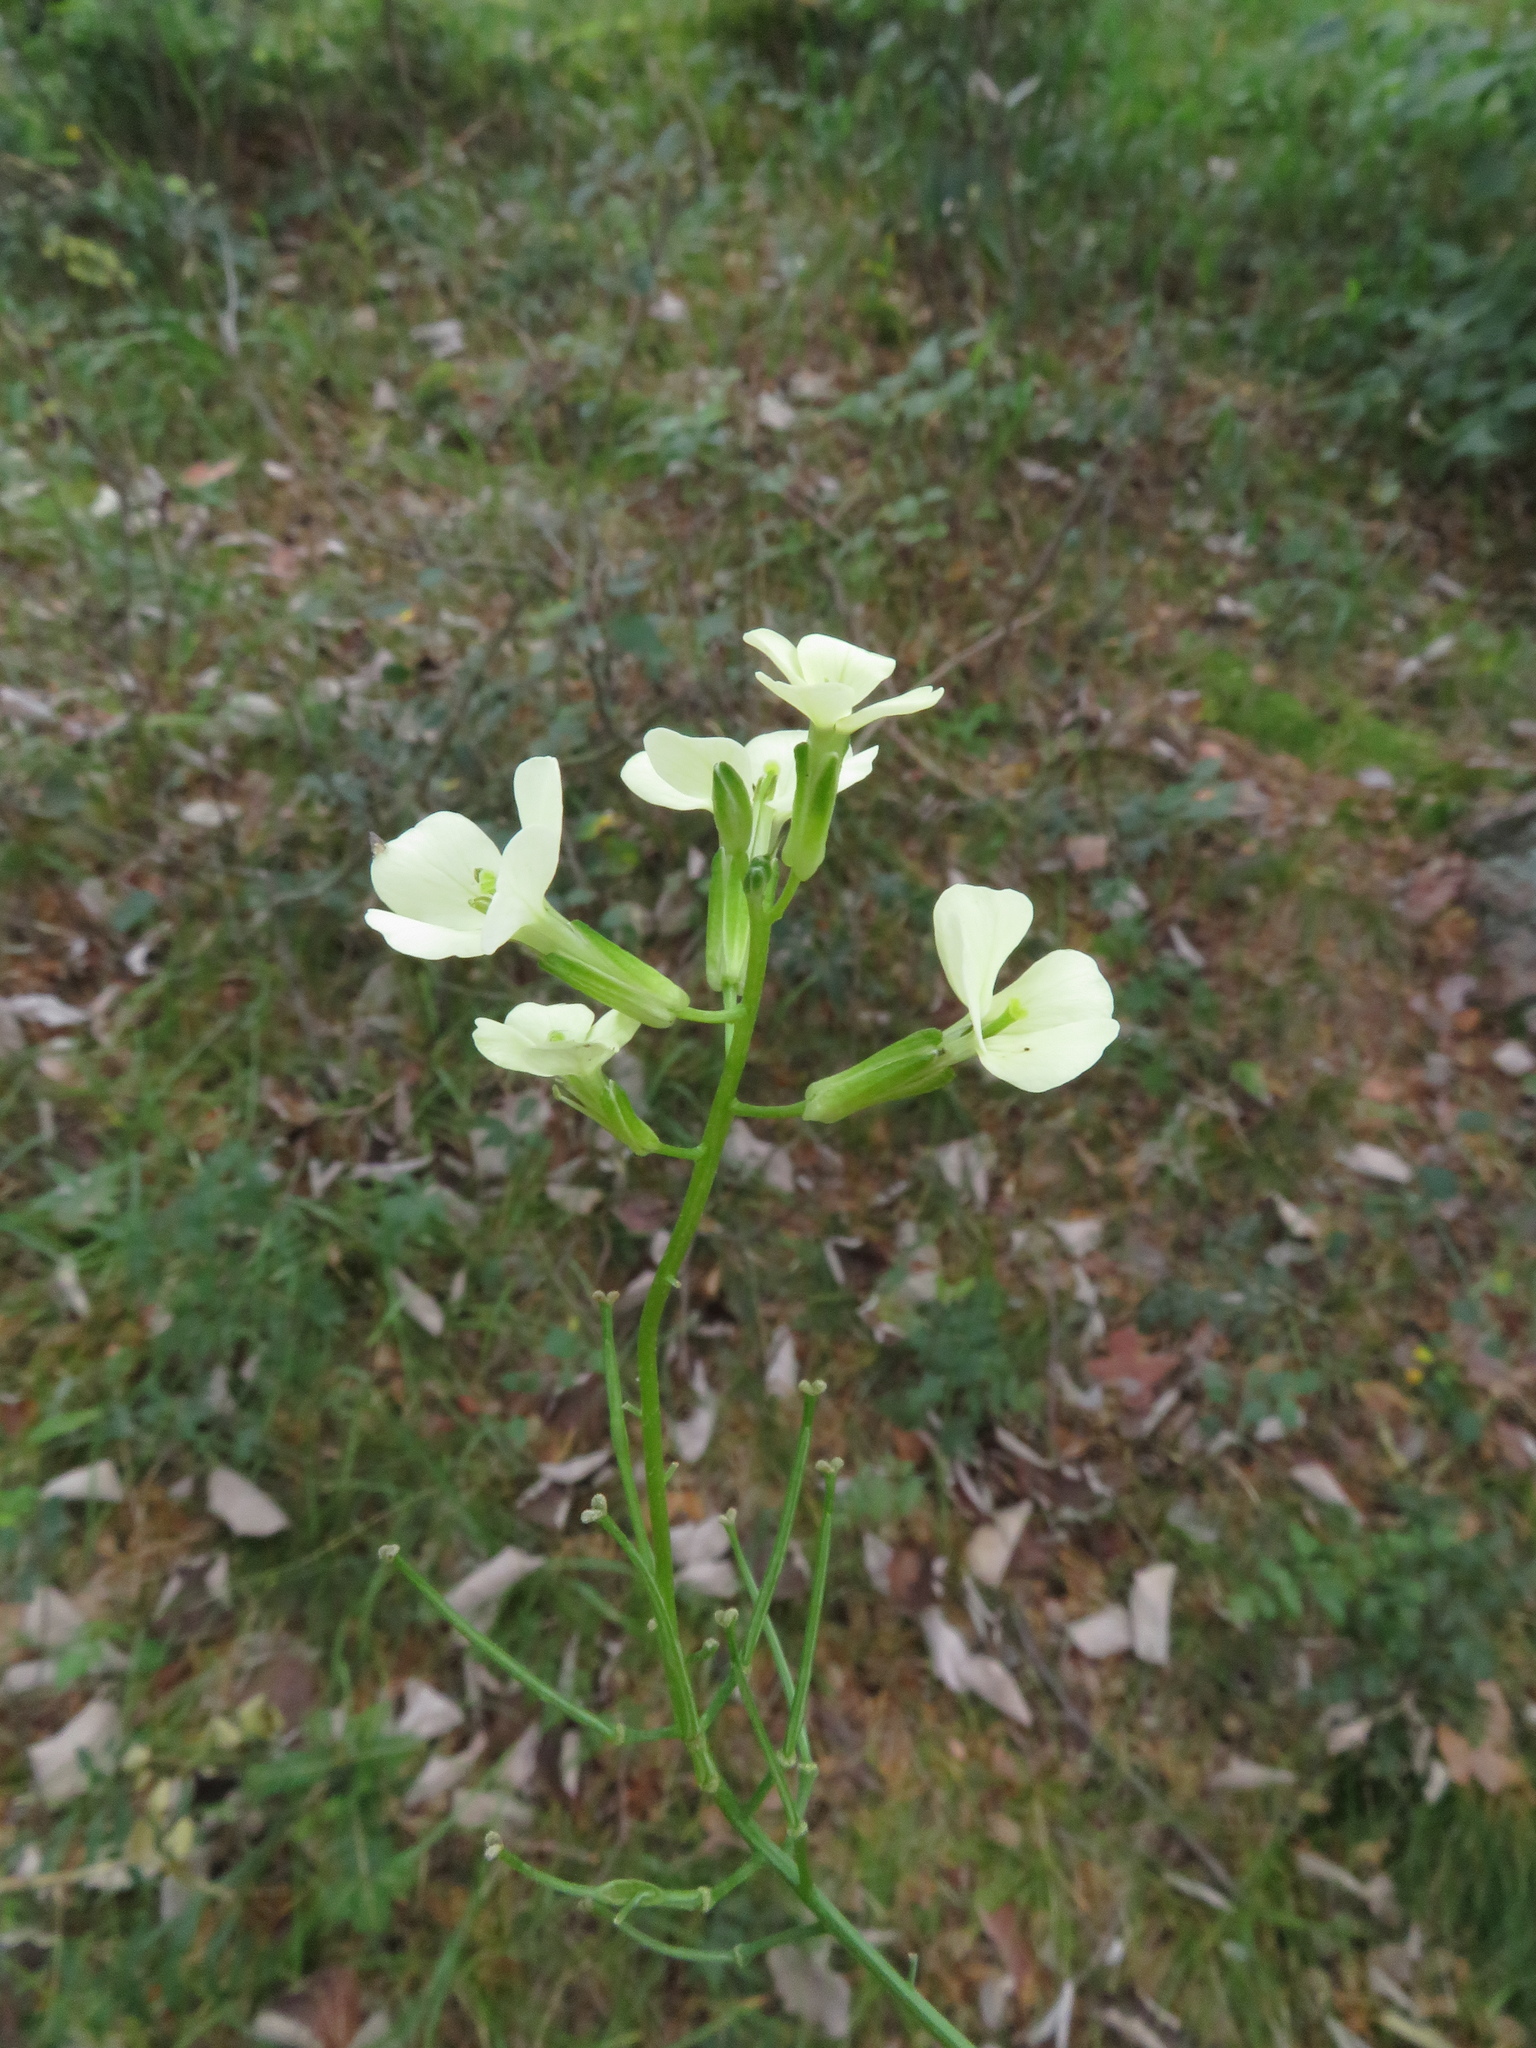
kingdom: Plantae
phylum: Tracheophyta
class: Magnoliopsida
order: Brassicales
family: Brassicaceae
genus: Erysimum
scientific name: Erysimum witmannii
